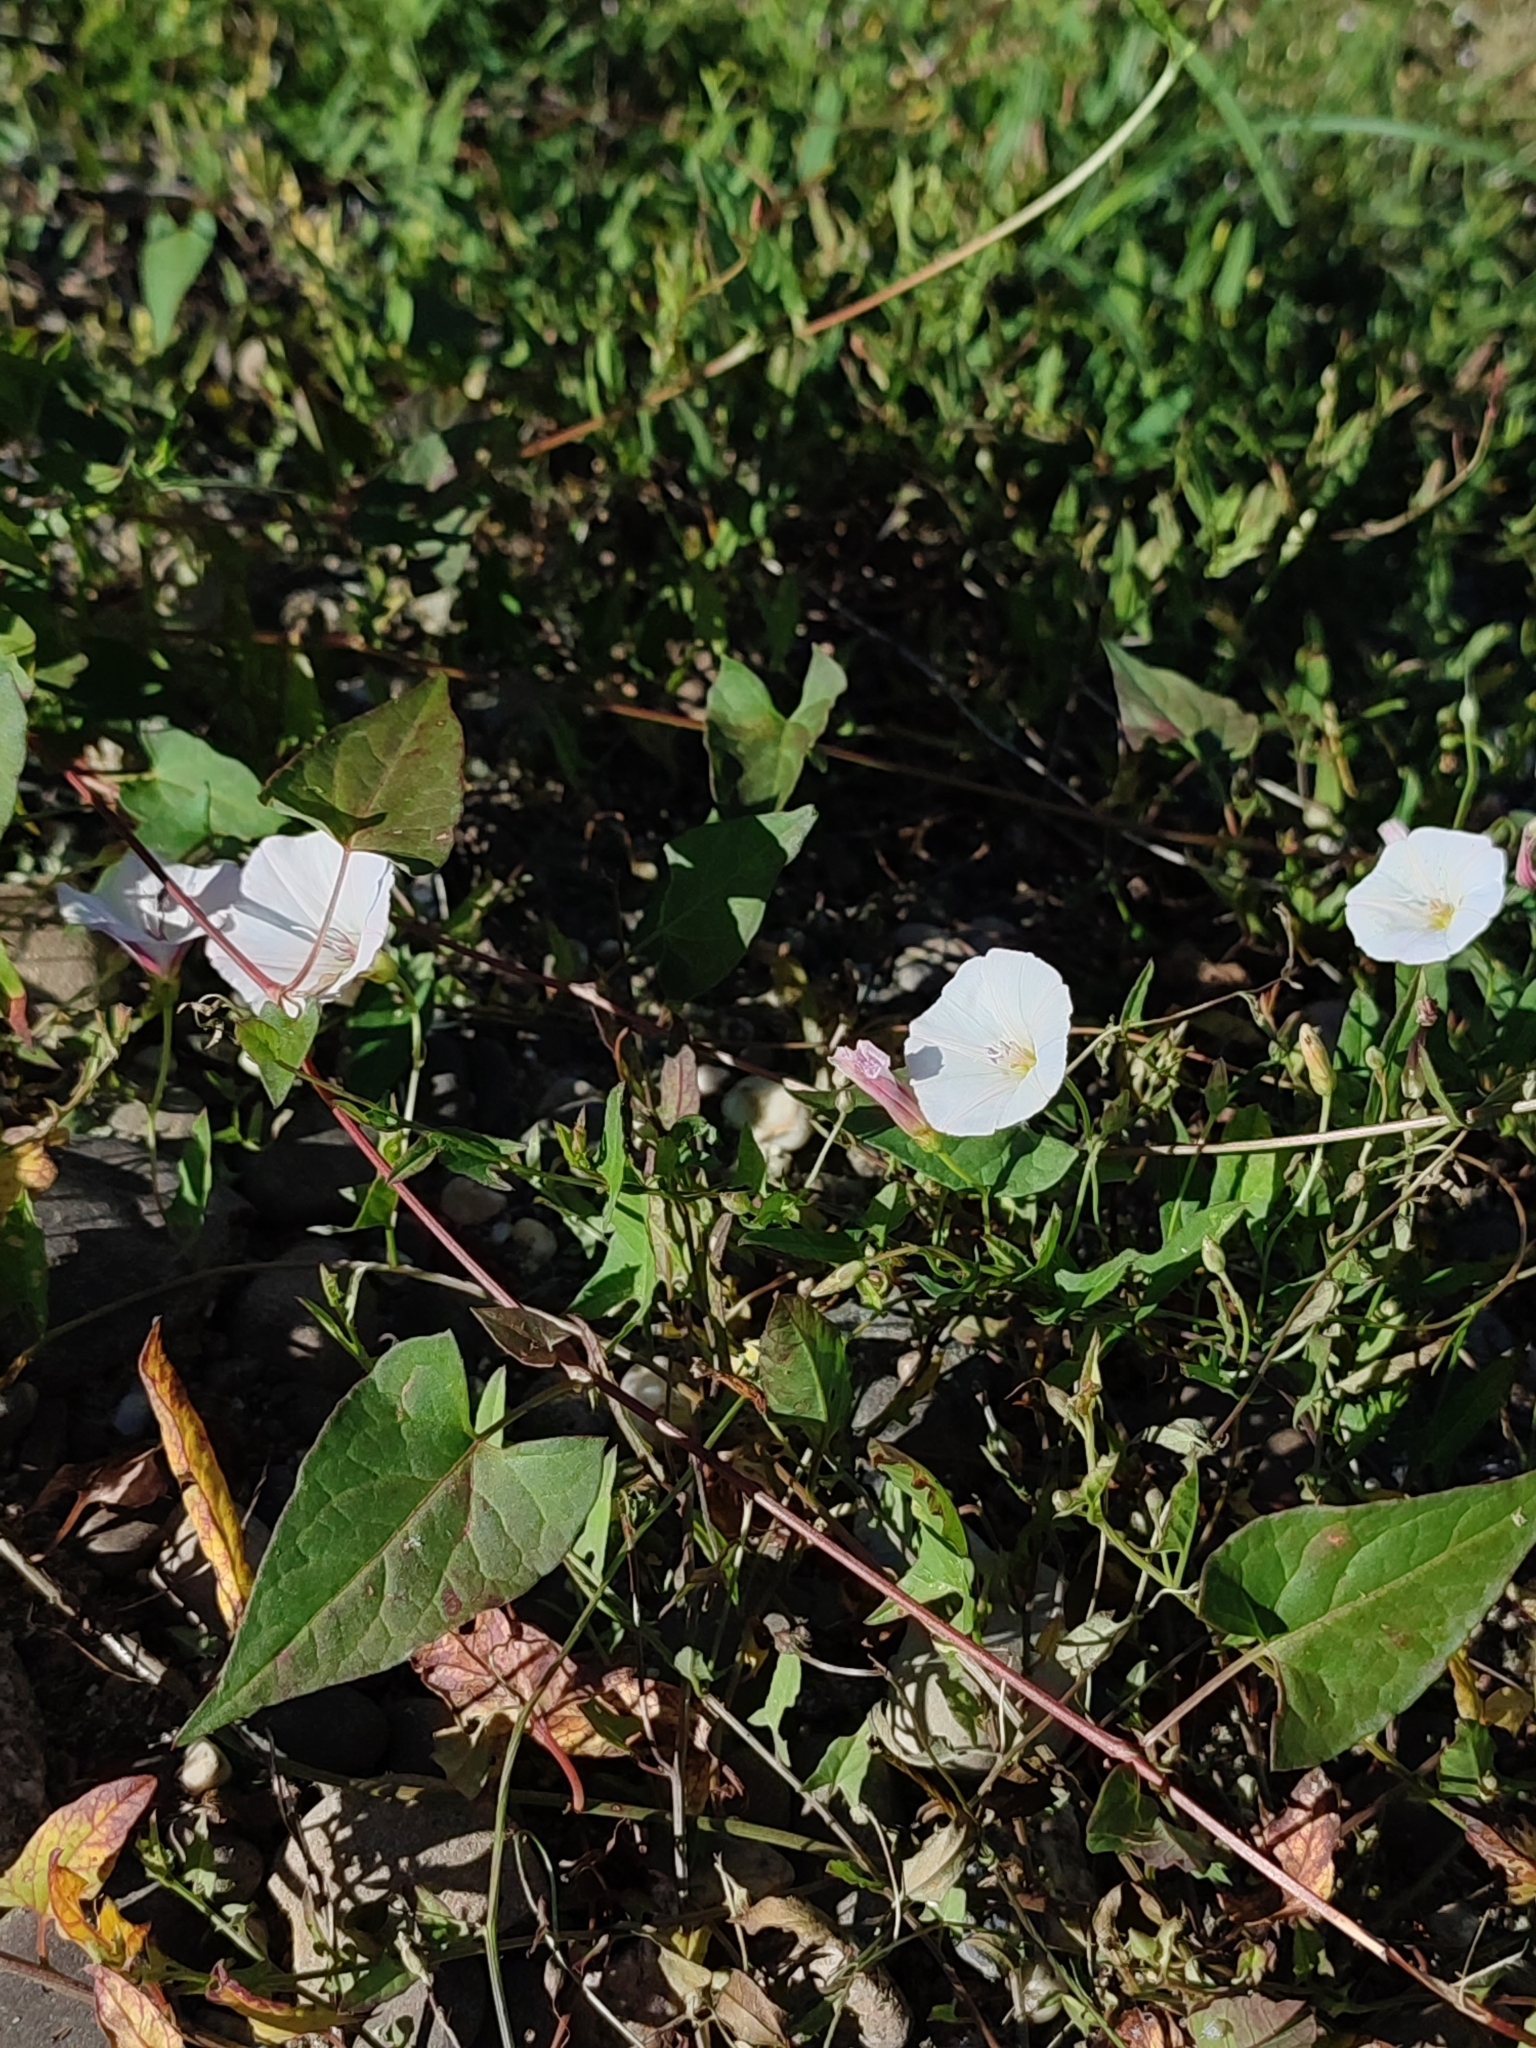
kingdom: Plantae
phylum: Tracheophyta
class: Magnoliopsida
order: Solanales
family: Convolvulaceae
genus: Convolvulus
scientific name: Convolvulus arvensis
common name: Field bindweed
